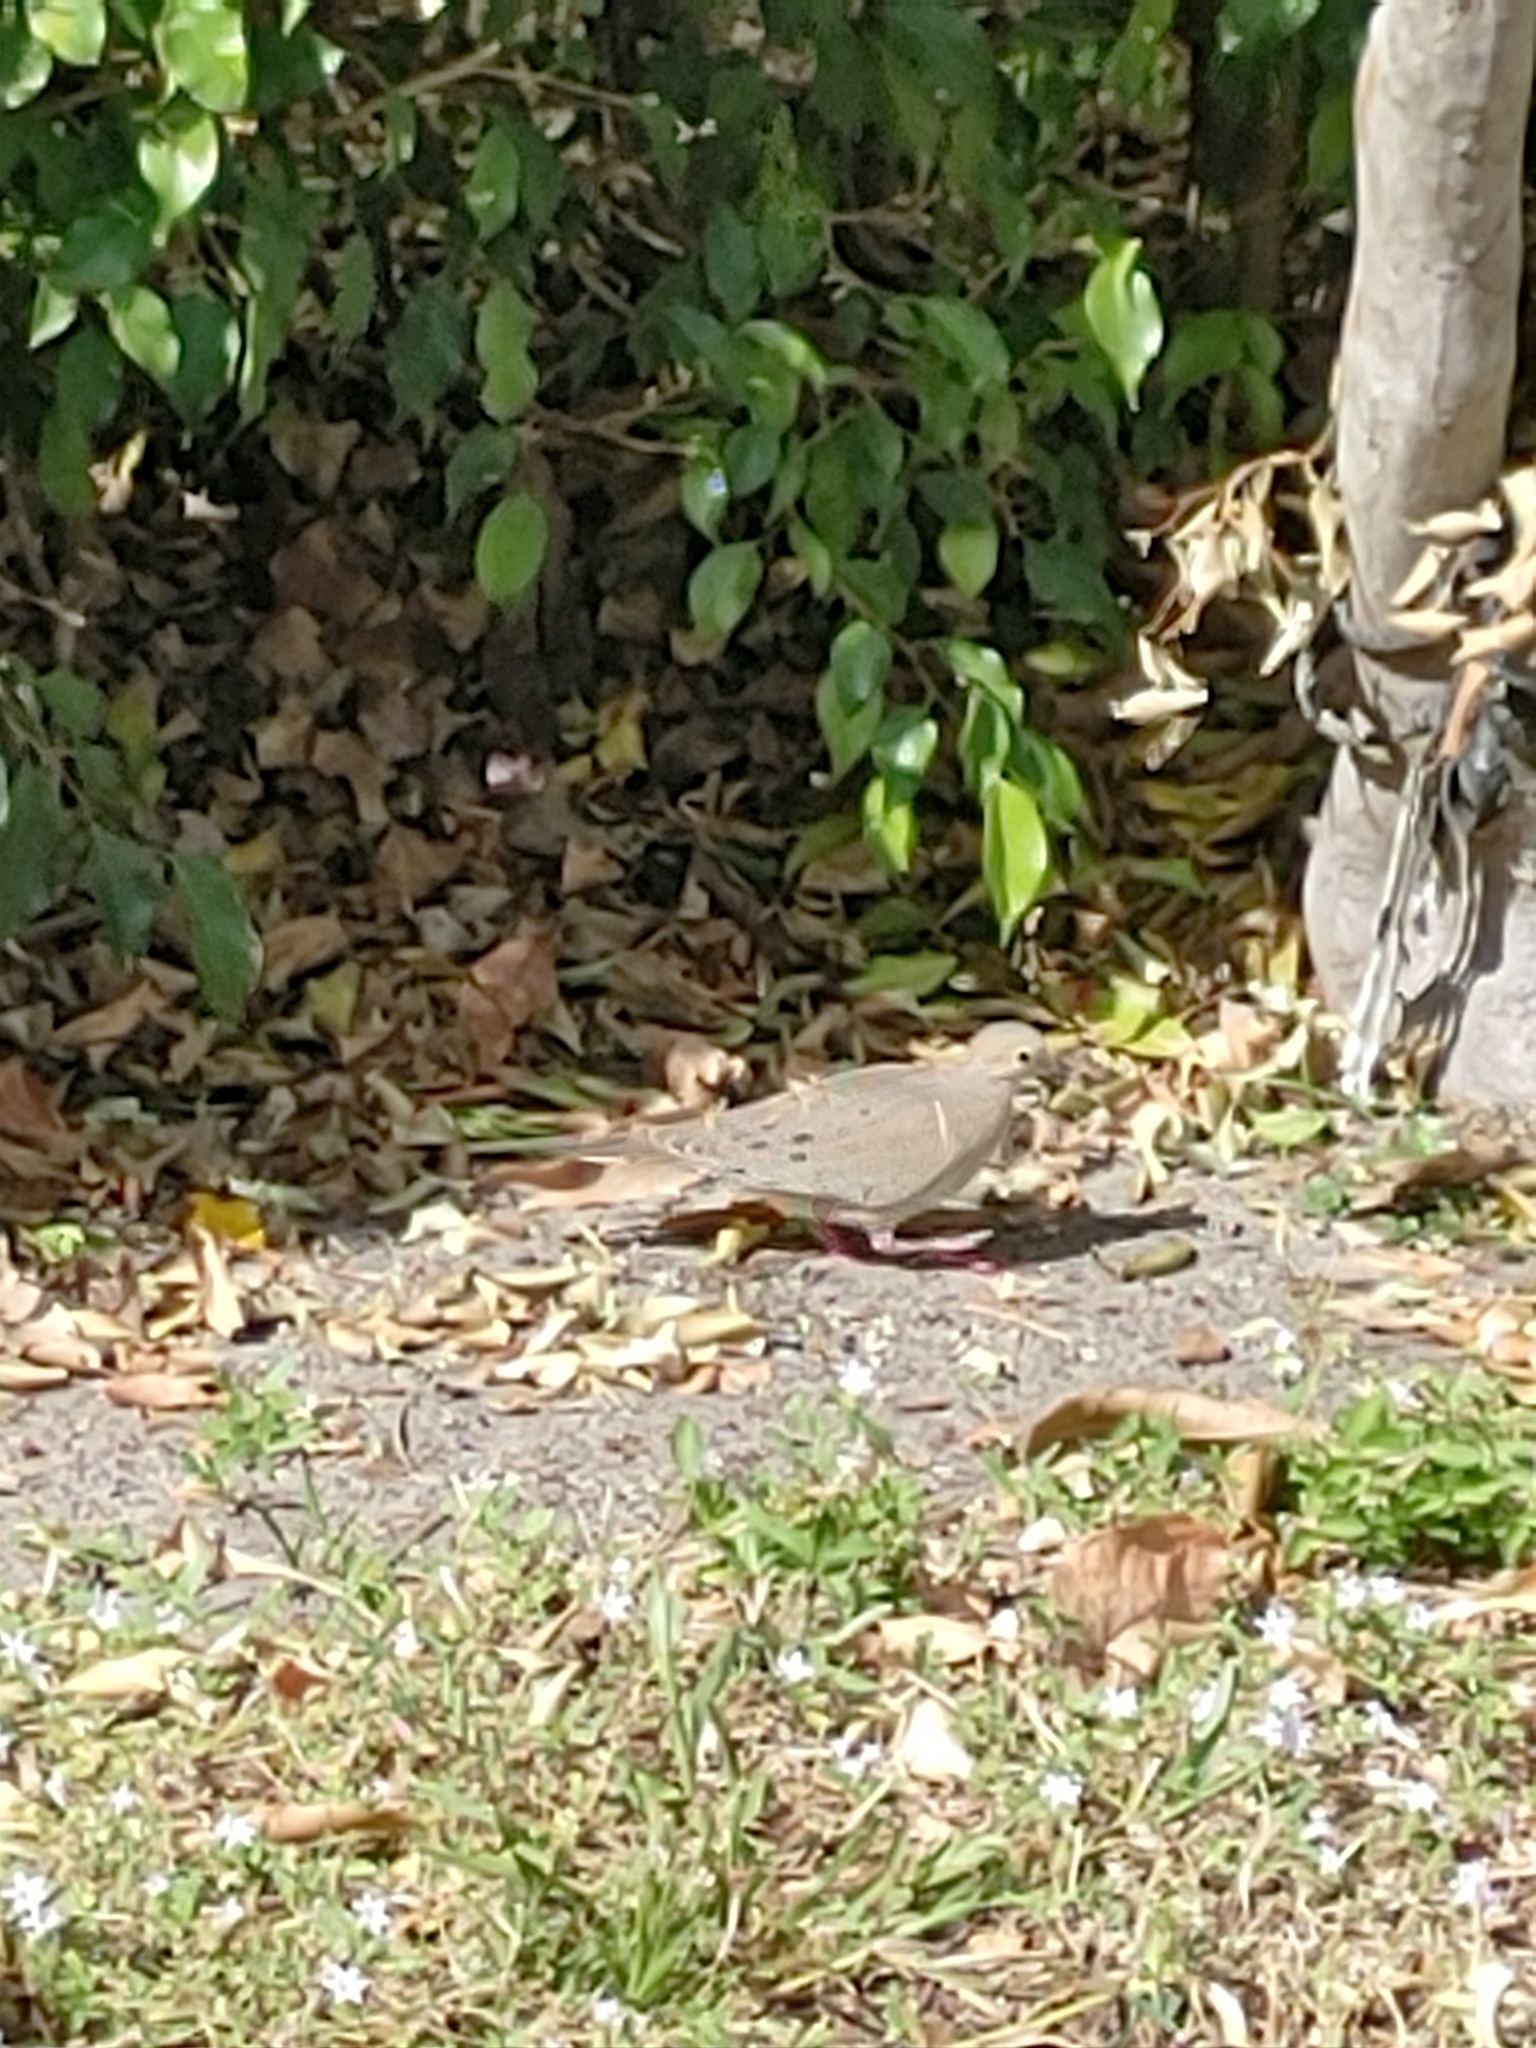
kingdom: Animalia
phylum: Chordata
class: Aves
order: Columbiformes
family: Columbidae
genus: Zenaida
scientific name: Zenaida macroura
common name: Mourning dove
